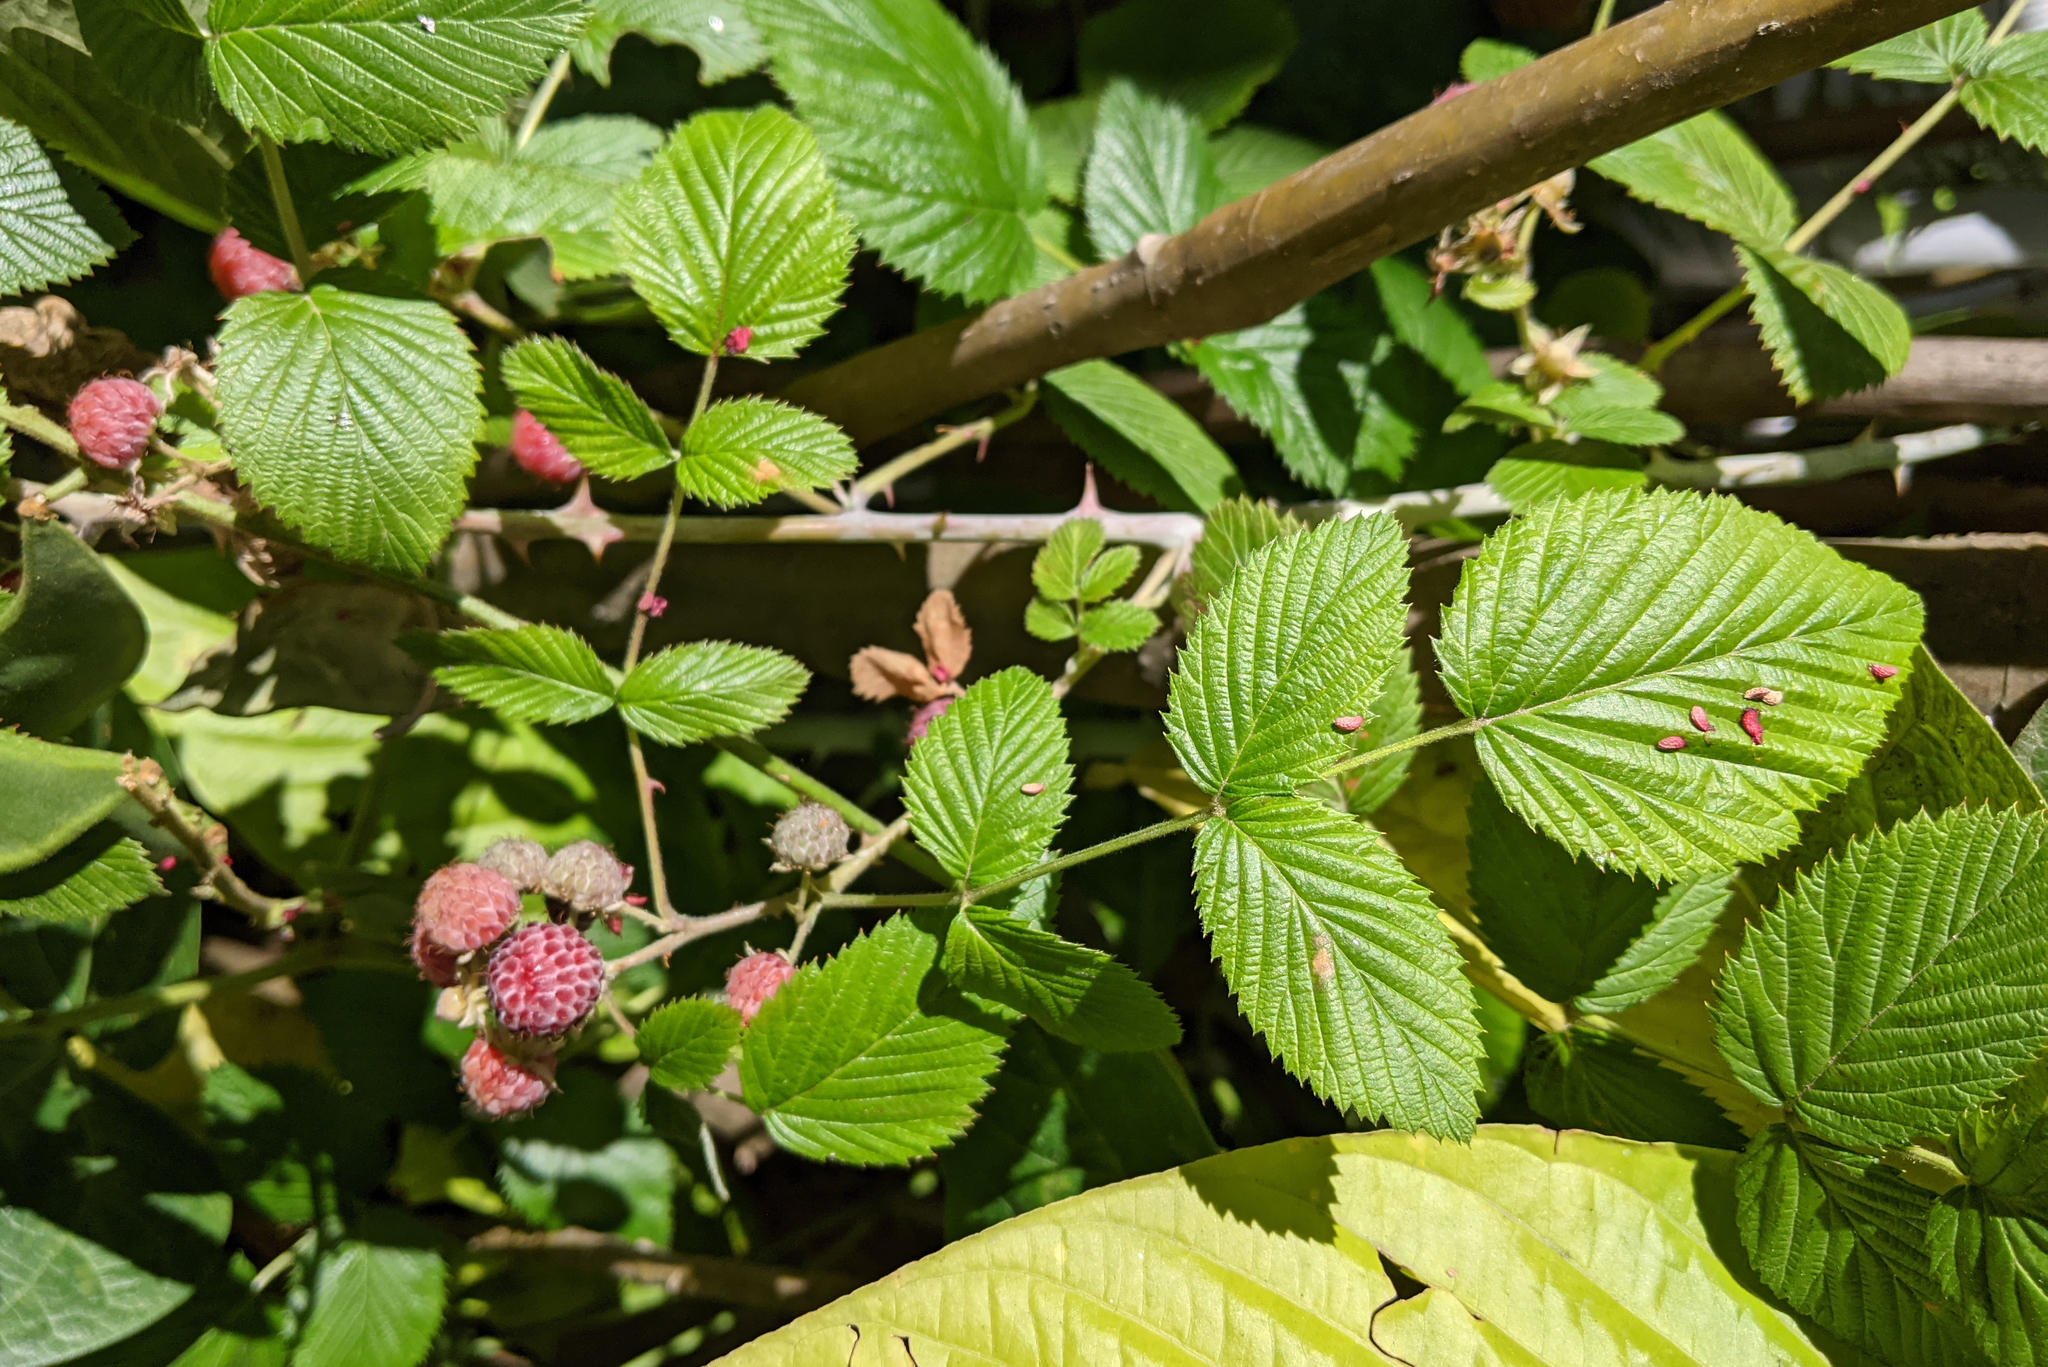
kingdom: Plantae
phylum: Tracheophyta
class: Magnoliopsida
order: Rosales
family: Rosaceae
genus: Rubus
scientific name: Rubus niveus
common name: Snowpeaks raspberry
